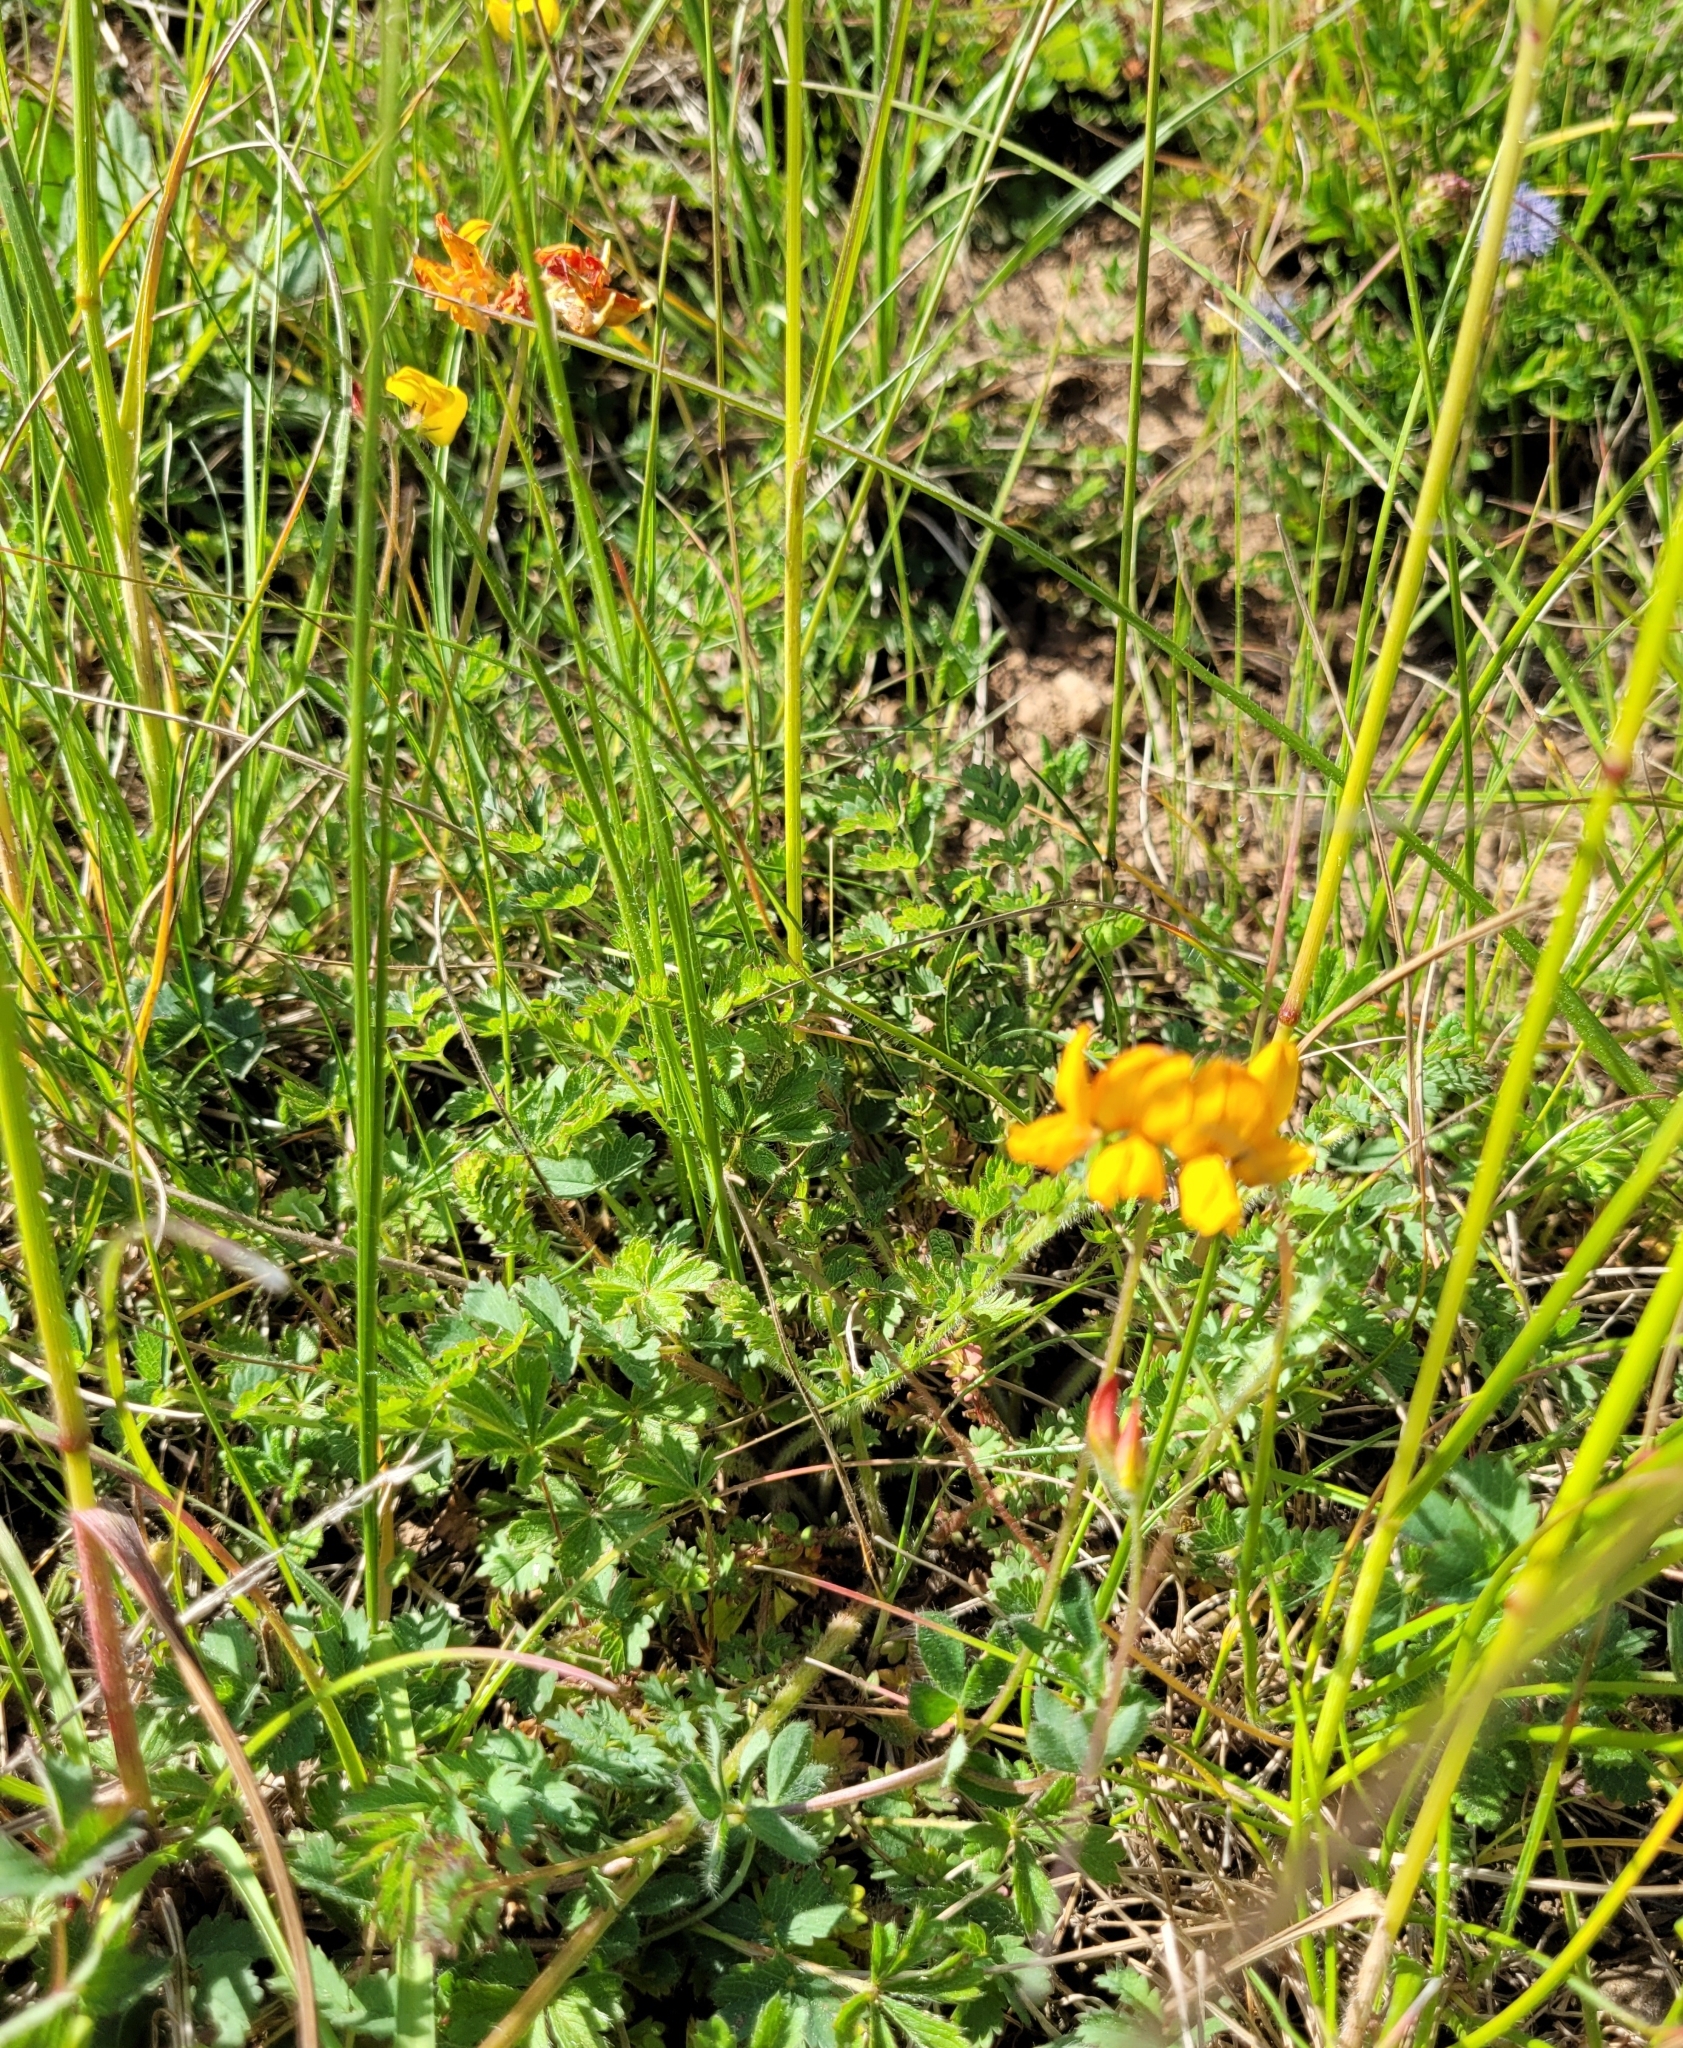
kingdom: Plantae
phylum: Tracheophyta
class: Magnoliopsida
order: Fabales
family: Fabaceae
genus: Lotus
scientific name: Lotus corniculatus
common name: Common bird's-foot-trefoil
